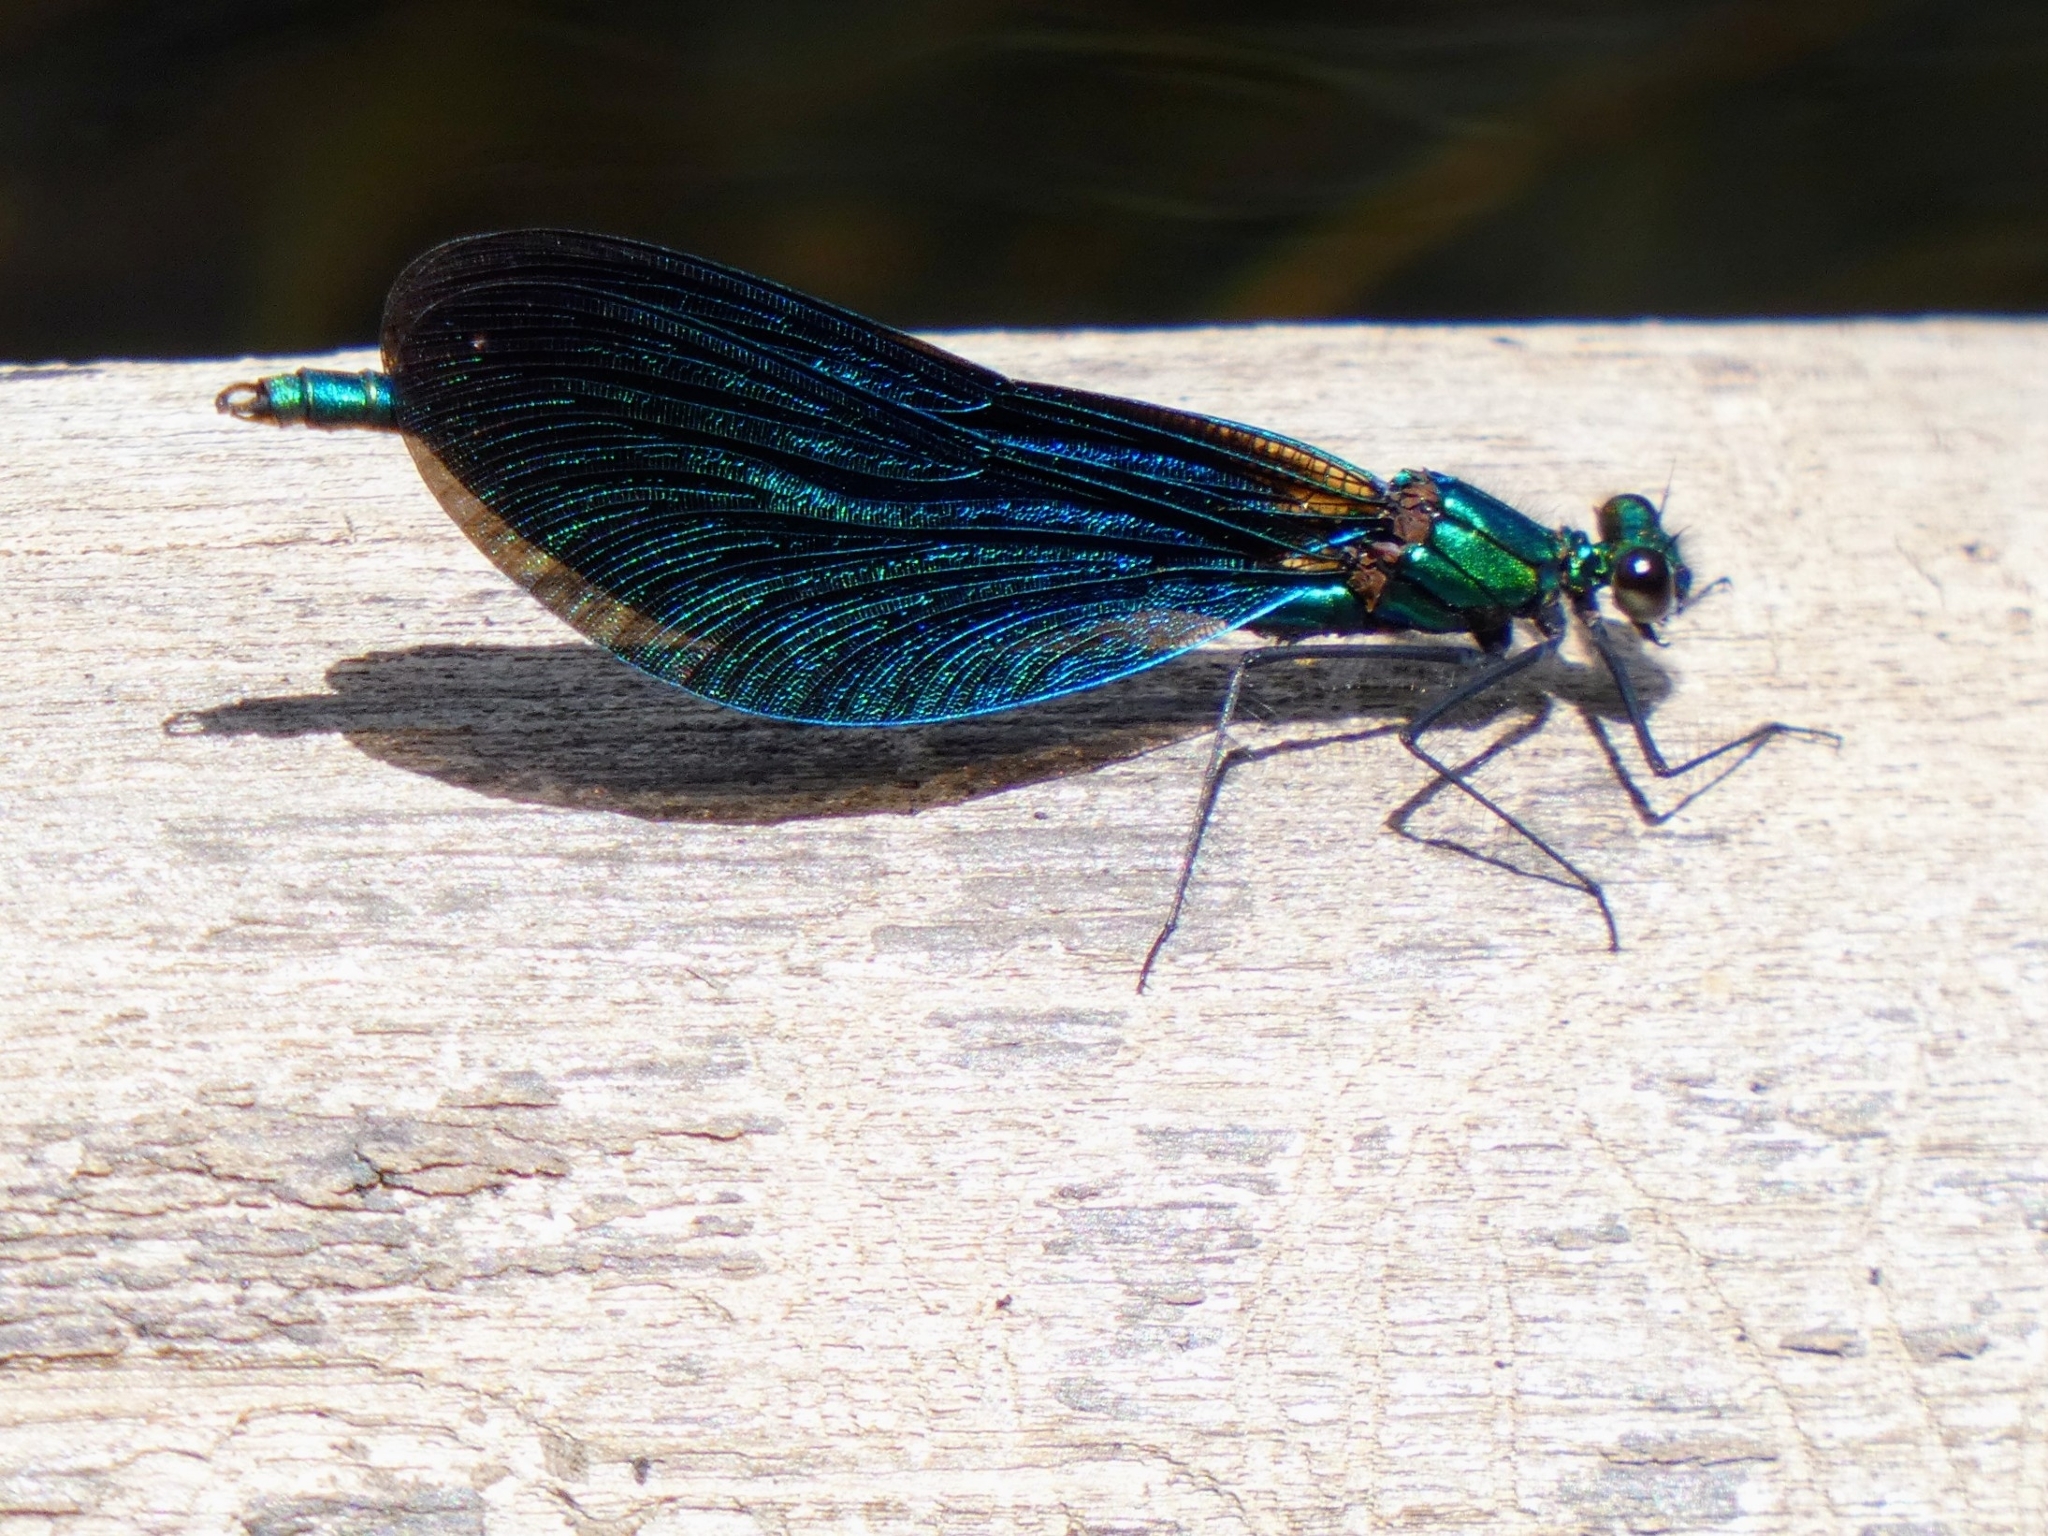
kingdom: Animalia
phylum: Arthropoda
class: Insecta
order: Odonata
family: Calopterygidae
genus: Calopteryx
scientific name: Calopteryx virgo
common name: Beautiful demoiselle
